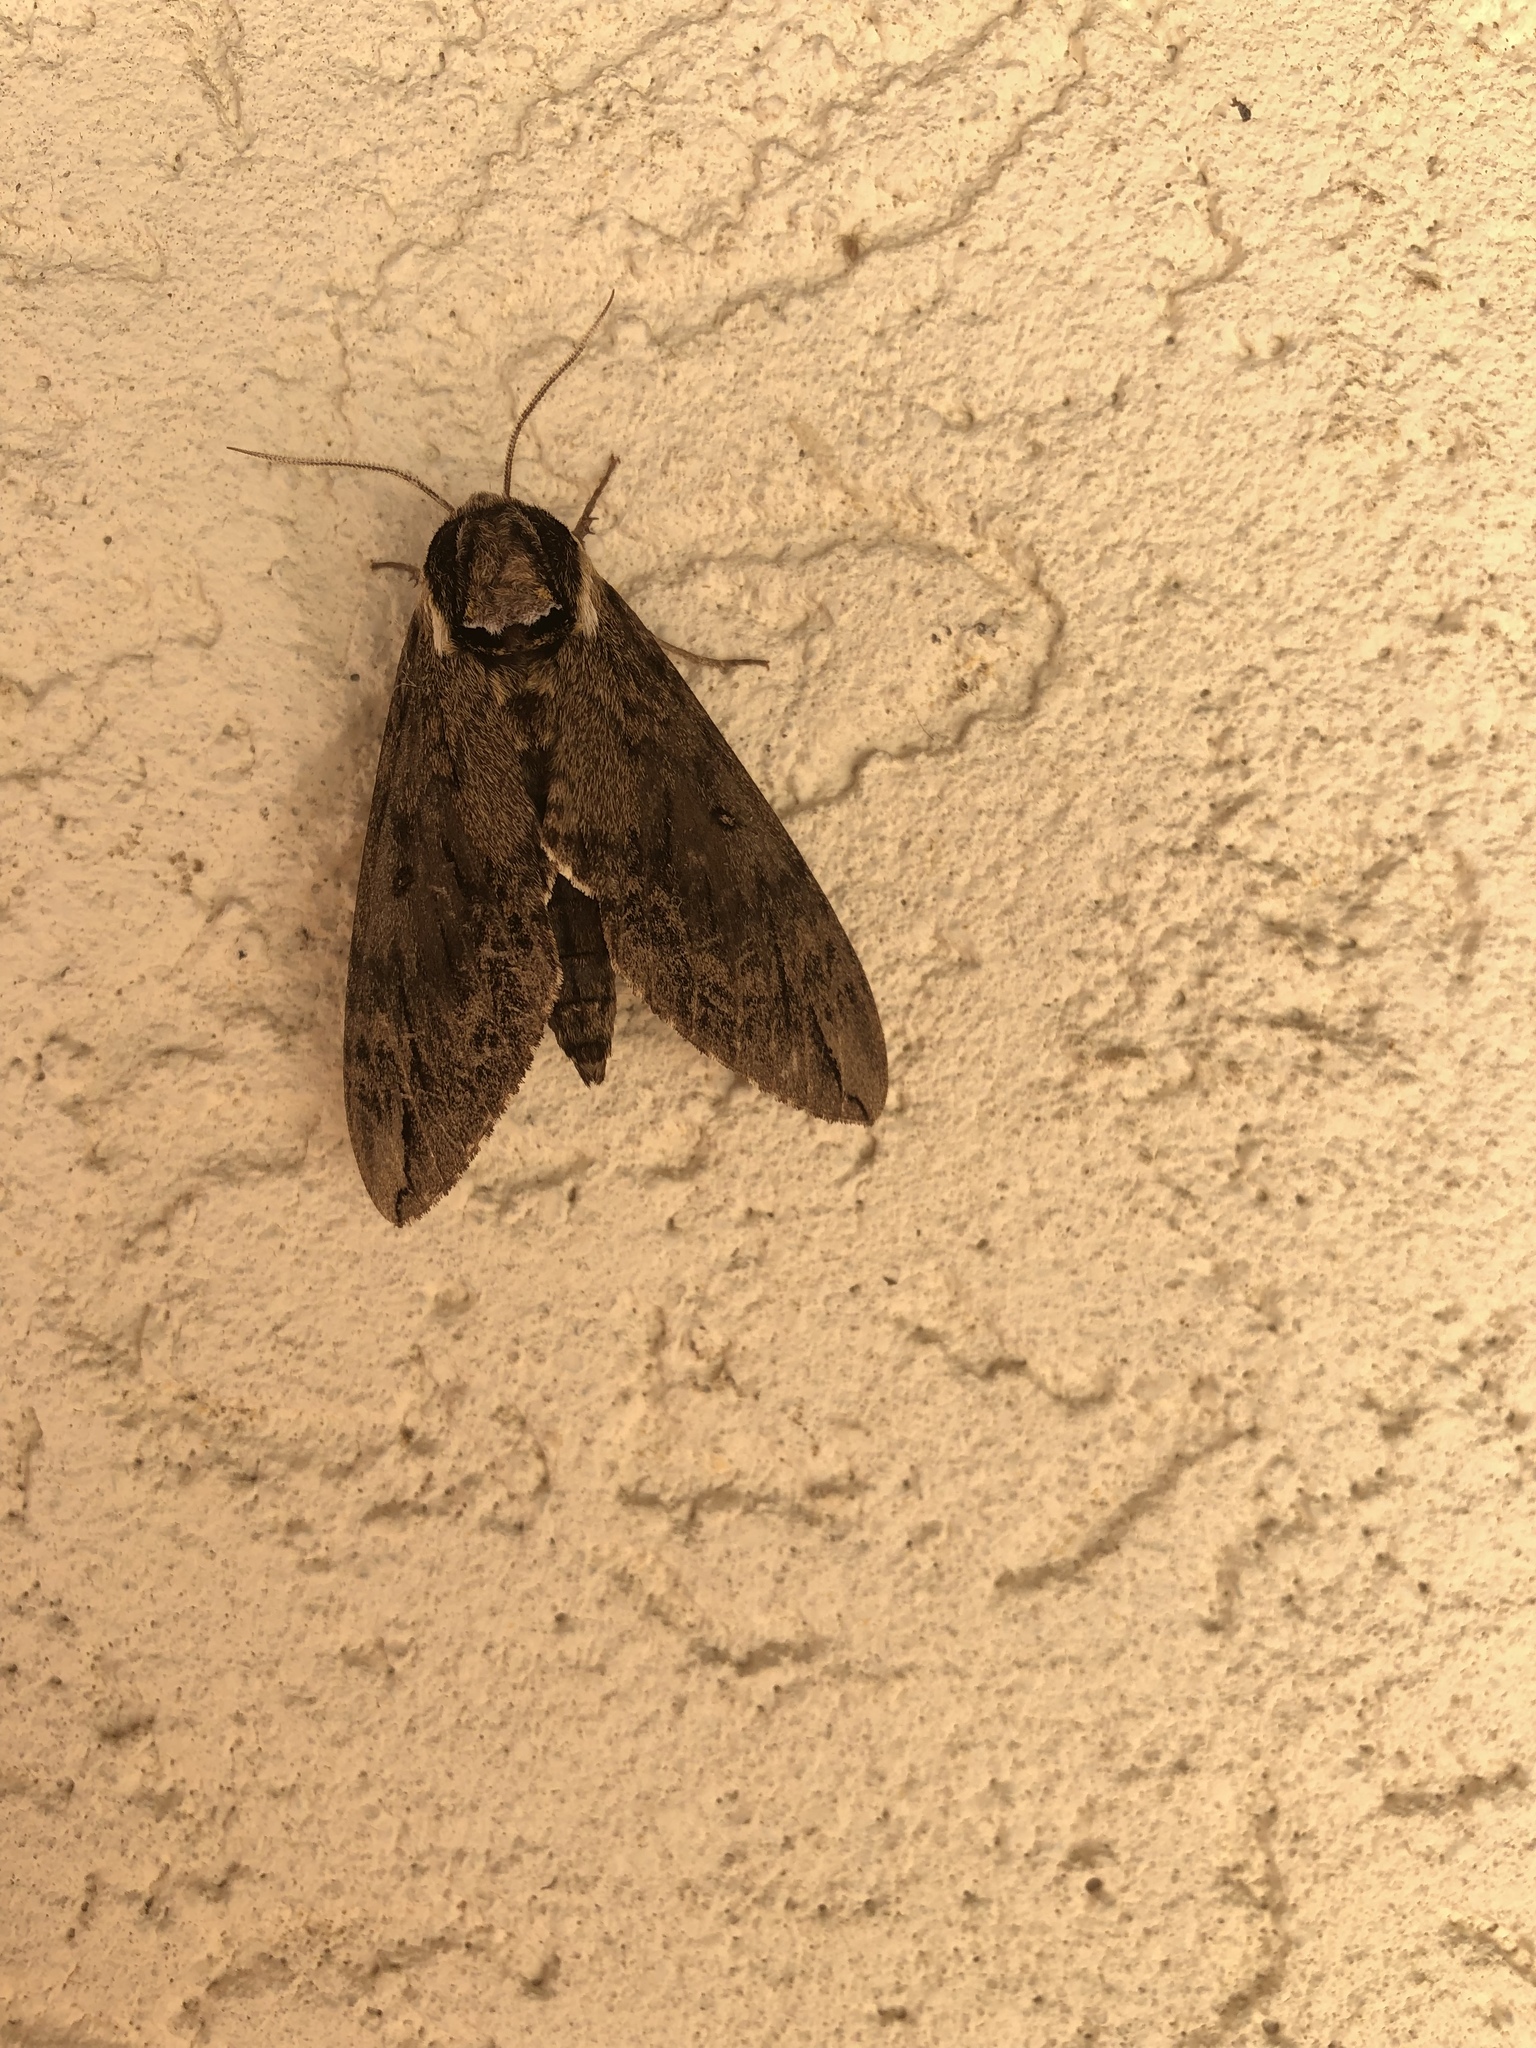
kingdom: Animalia
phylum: Arthropoda
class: Insecta
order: Lepidoptera
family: Sphingidae
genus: Ceratomia
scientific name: Ceratomia catalpae
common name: Catalpa hornworm
